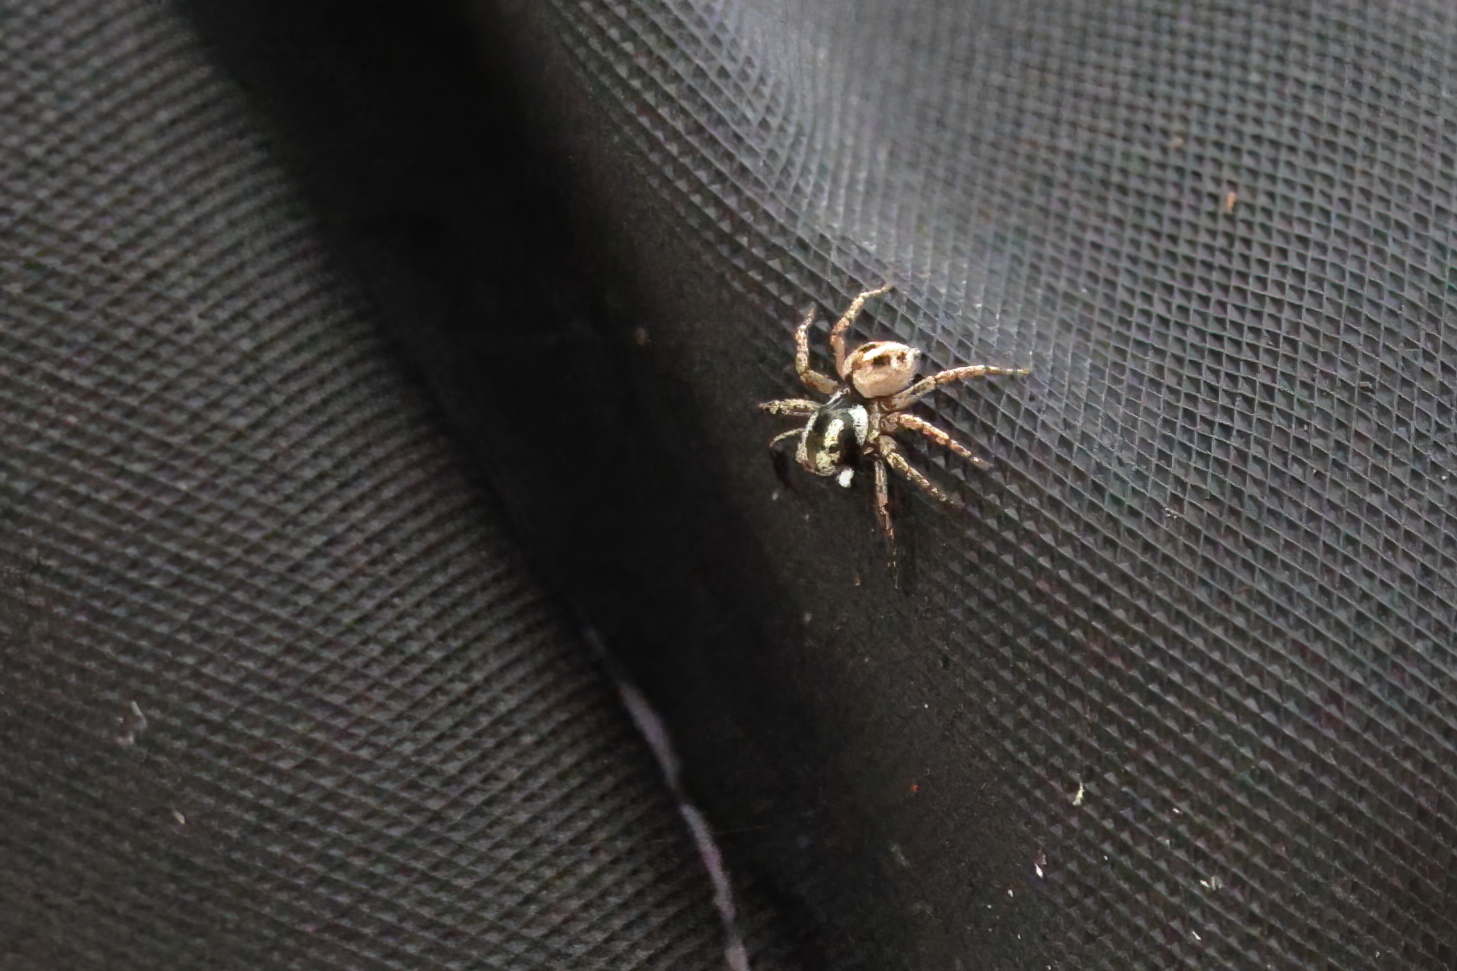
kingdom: Animalia
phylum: Arthropoda
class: Arachnida
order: Araneae
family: Salticidae
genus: Anasaitis
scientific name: Anasaitis canosa
